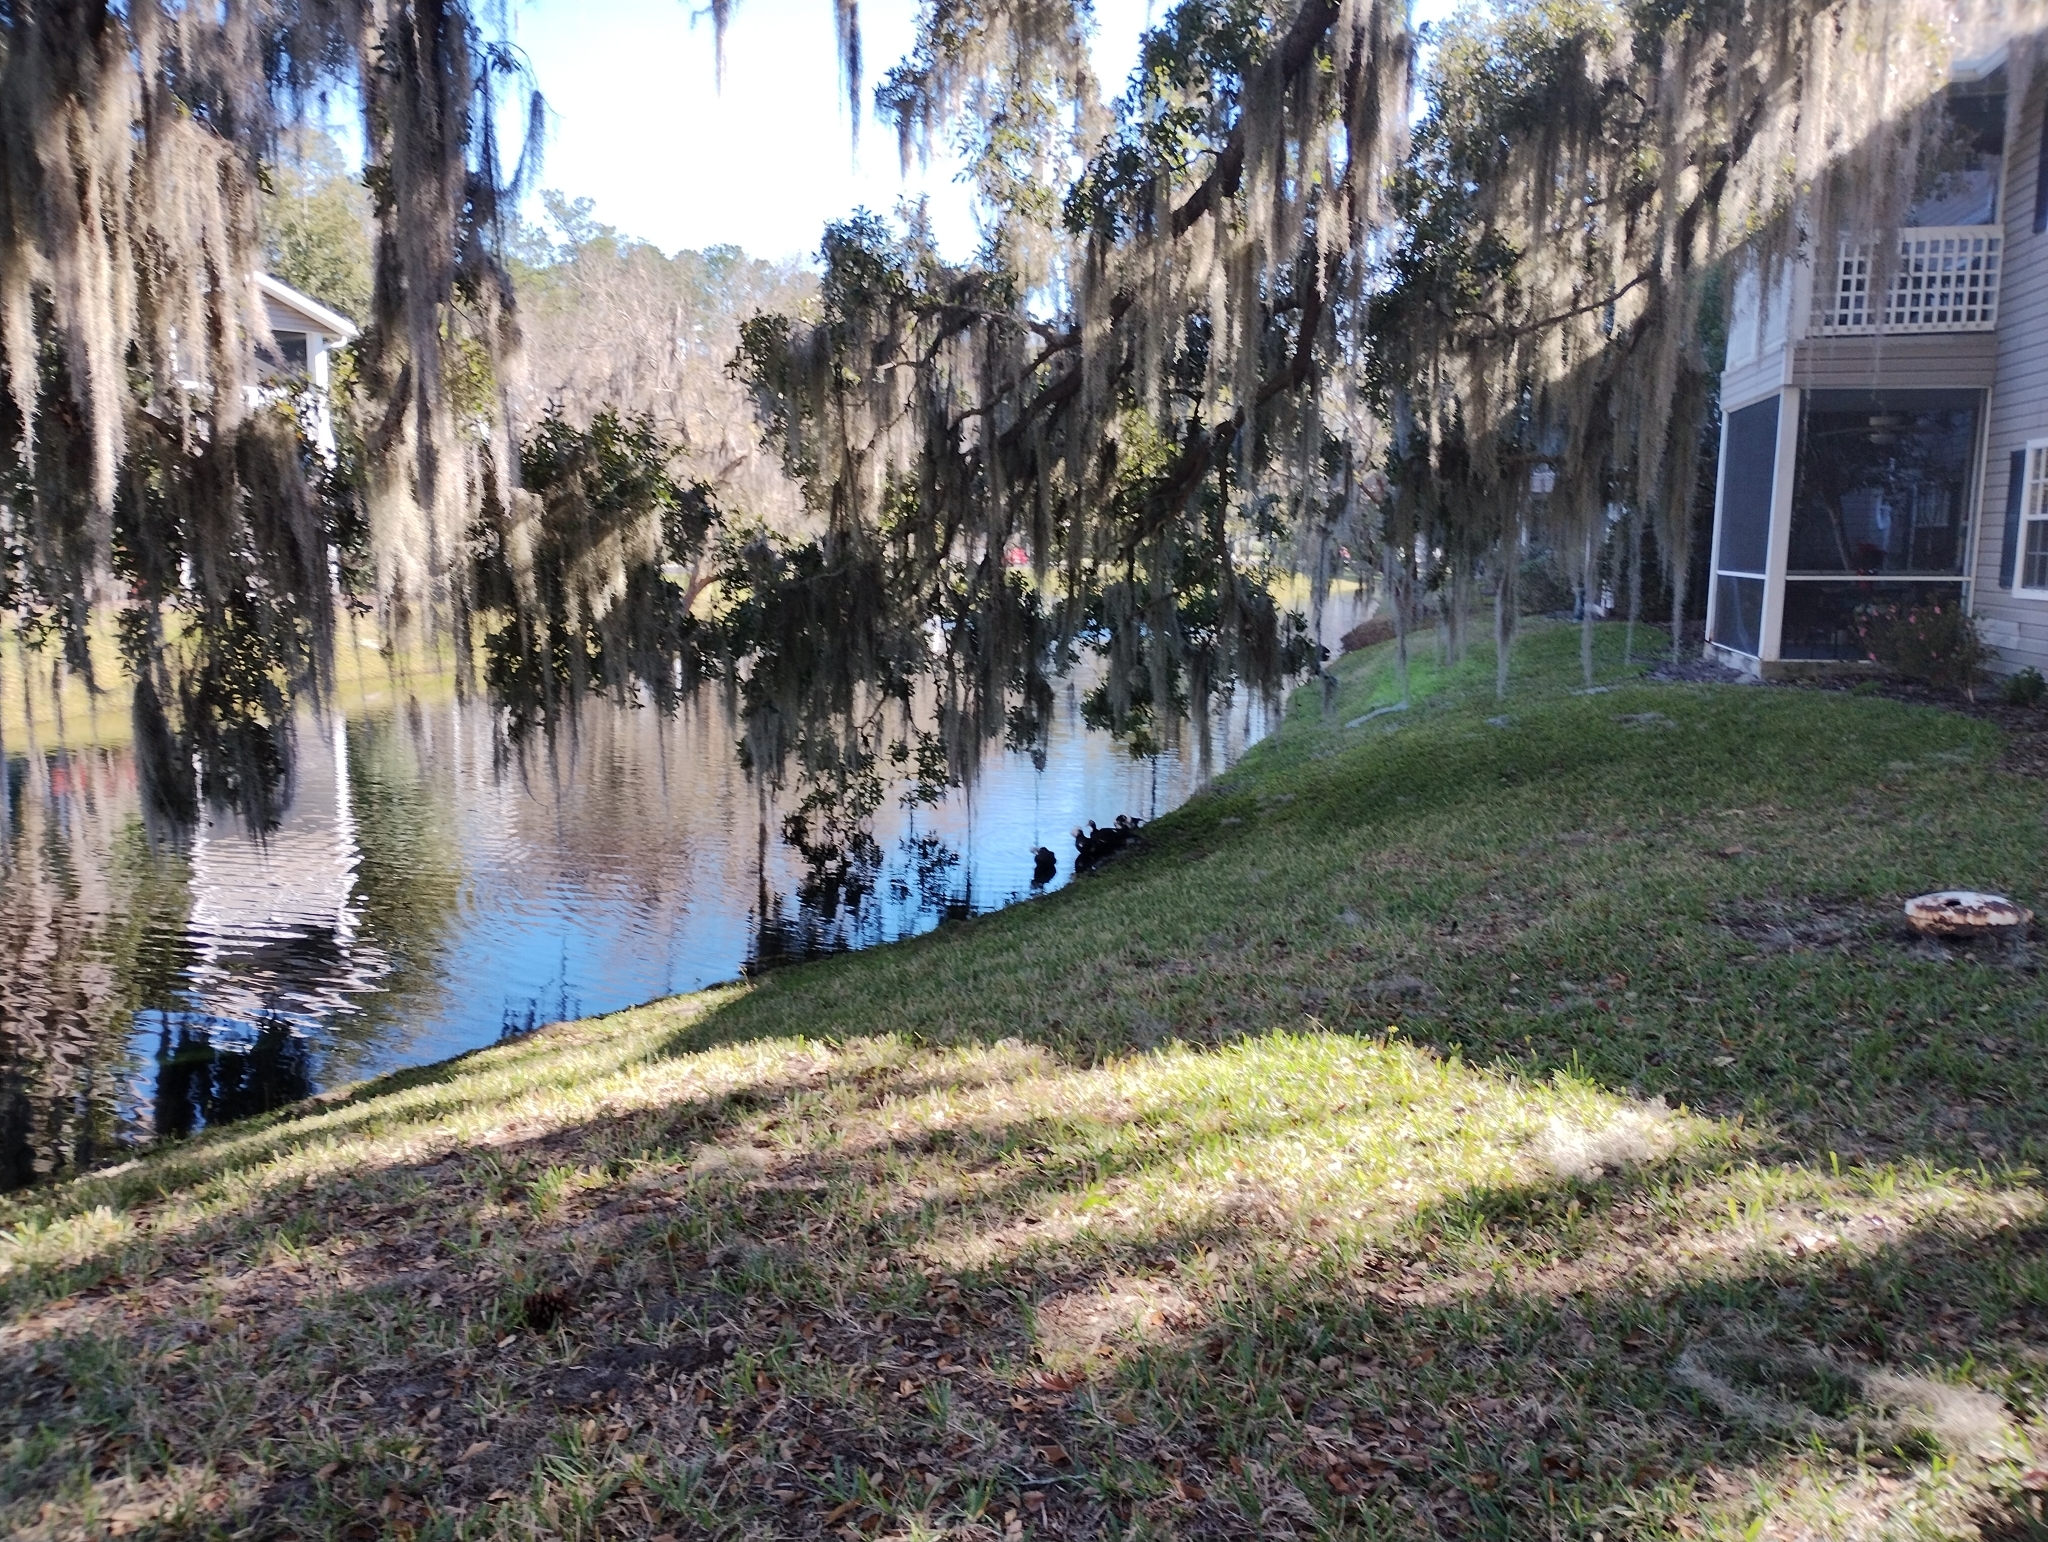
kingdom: Animalia
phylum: Chordata
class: Aves
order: Anseriformes
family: Anatidae
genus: Cairina
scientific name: Cairina moschata
